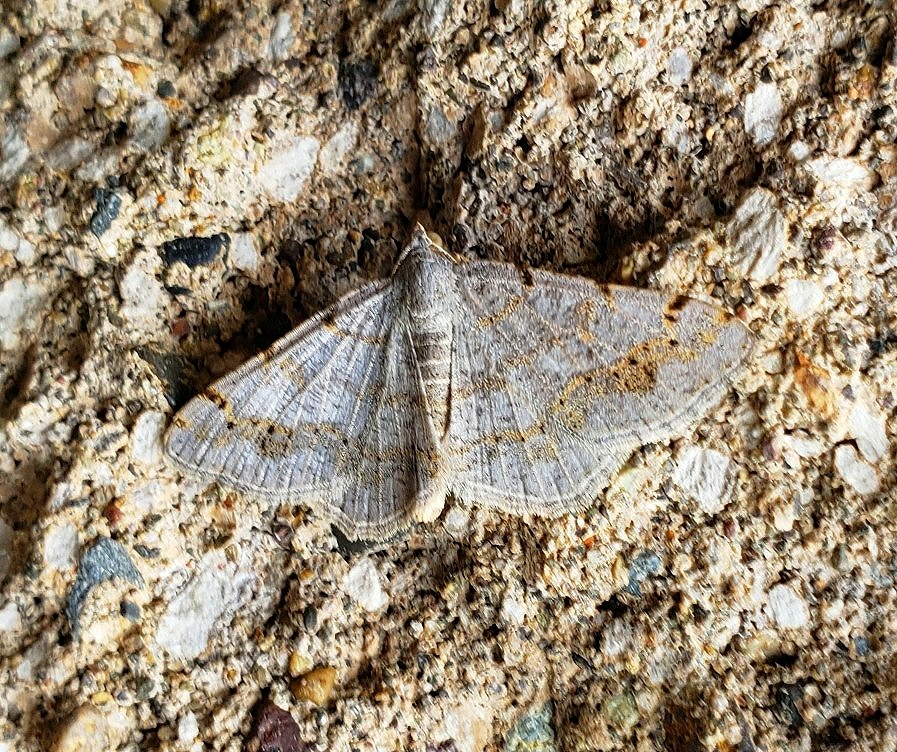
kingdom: Animalia
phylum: Arthropoda
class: Insecta
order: Lepidoptera
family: Geometridae
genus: Digrammia
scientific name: Digrammia ocellinata
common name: Faint-spotted angle
